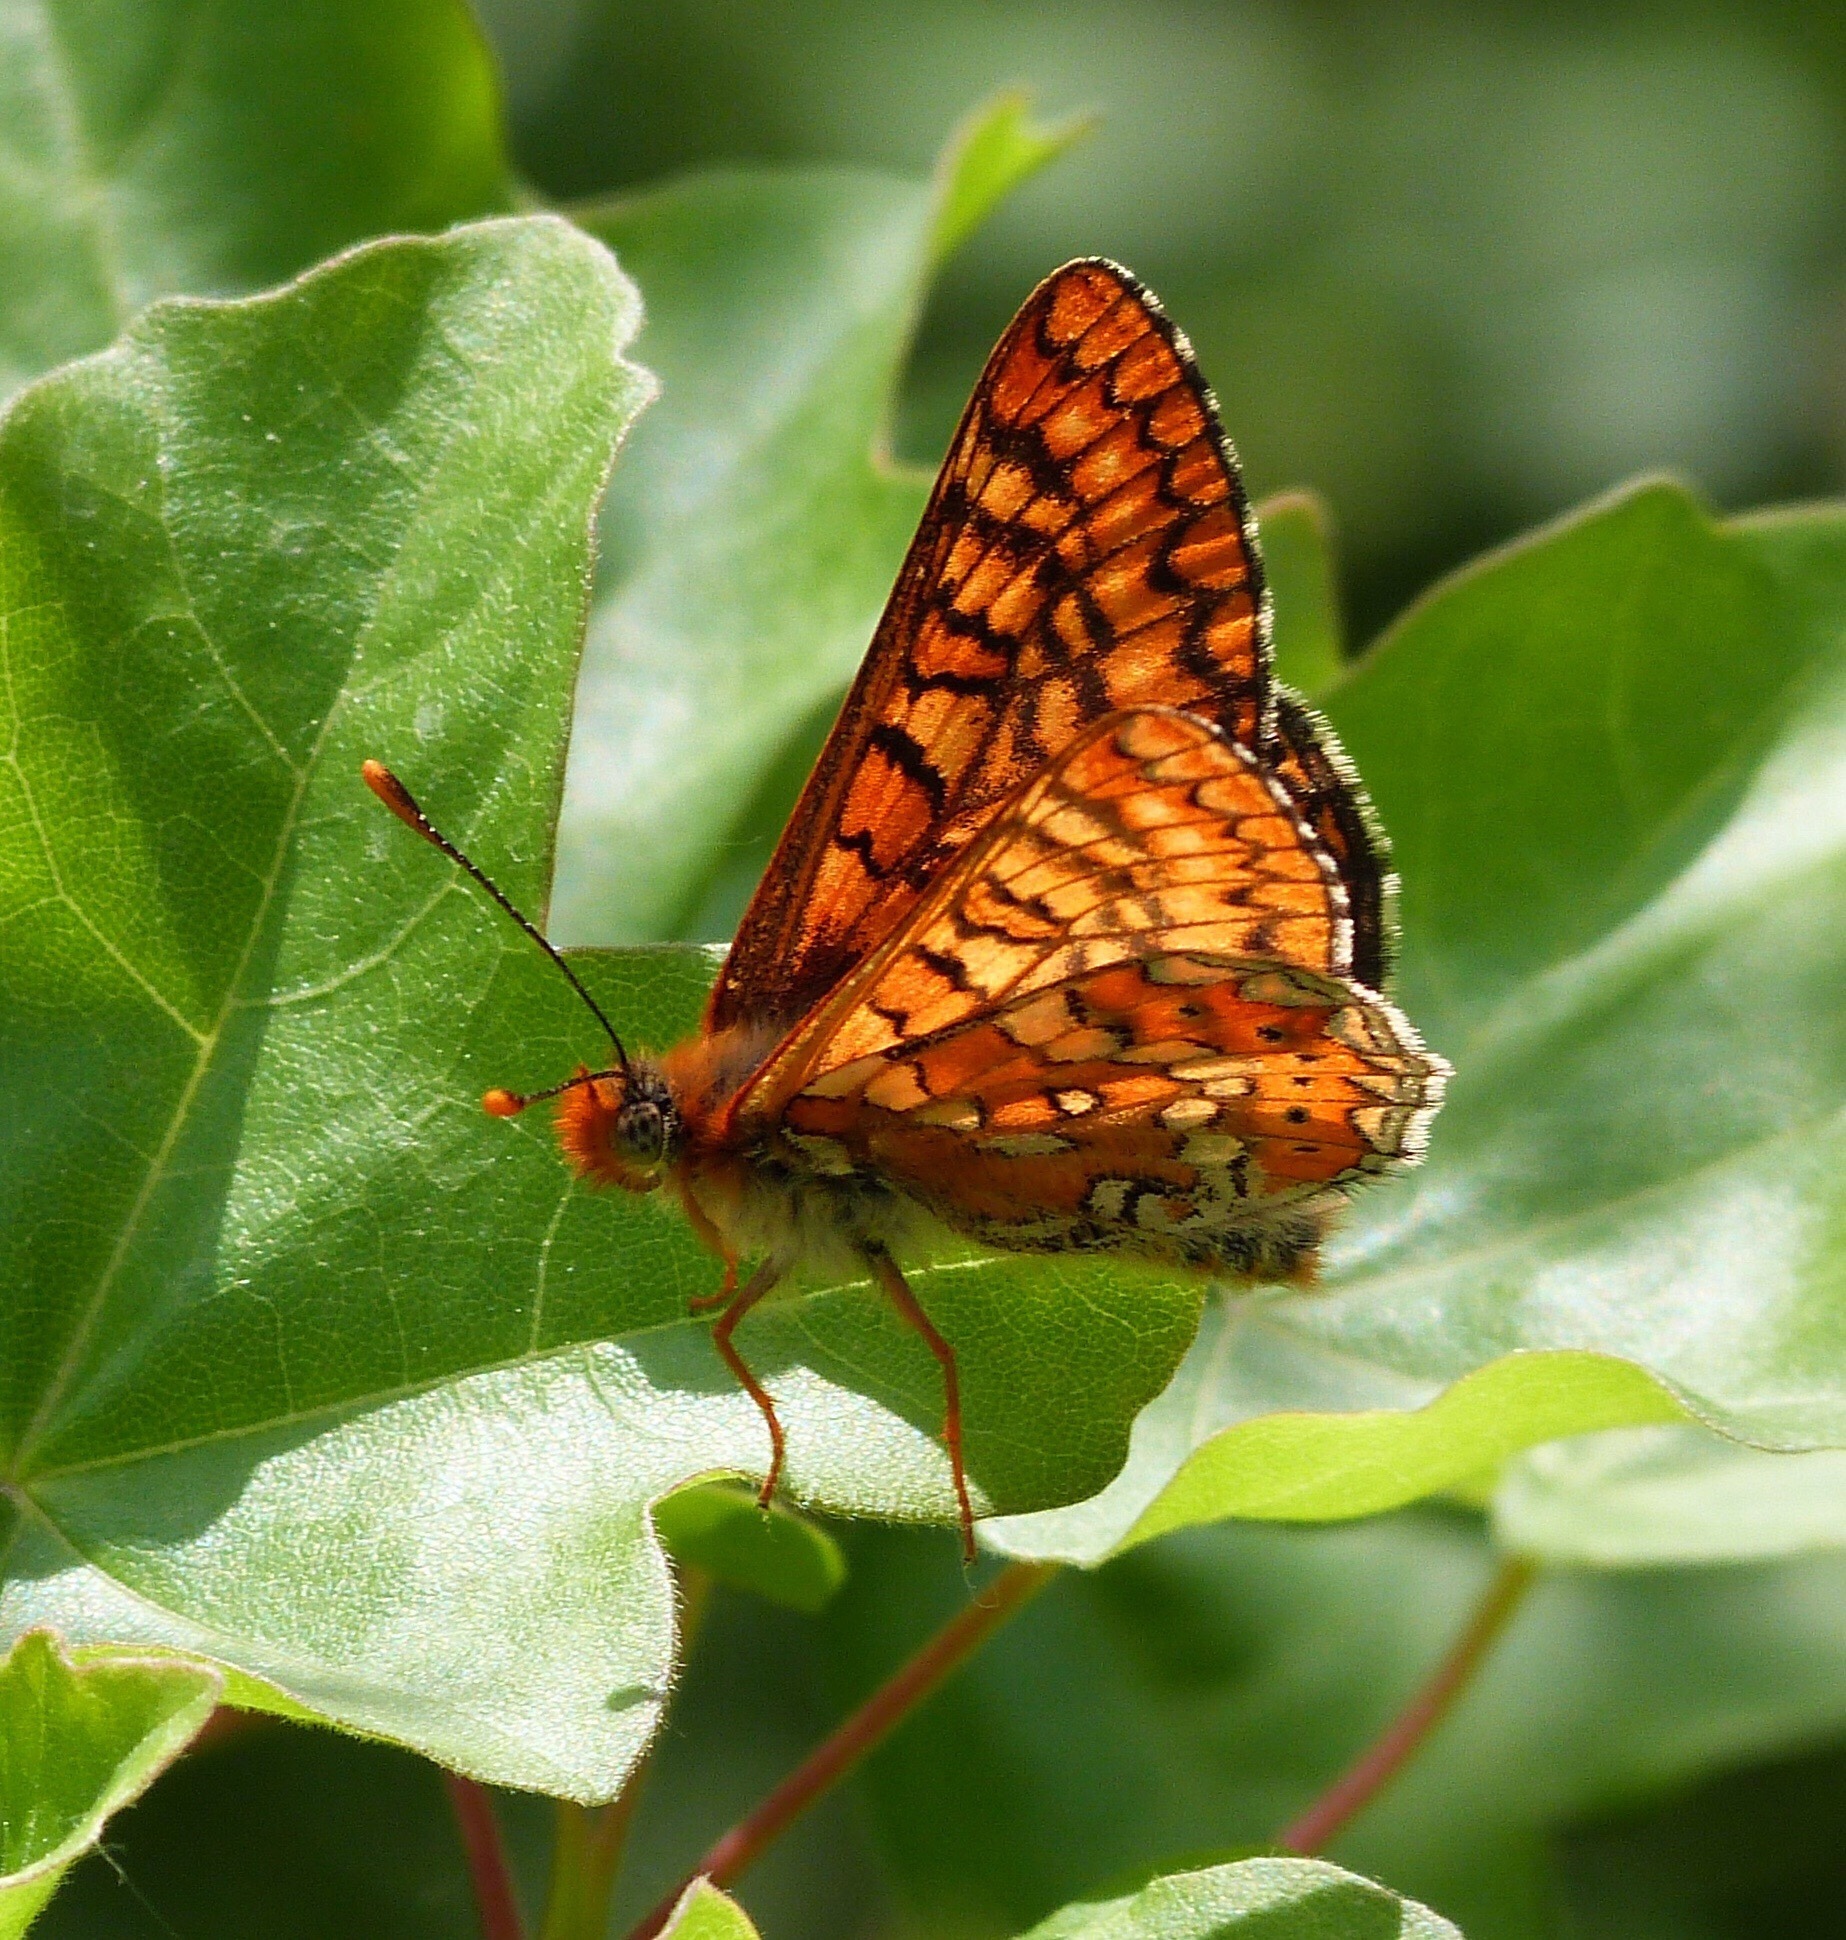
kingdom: Animalia
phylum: Arthropoda
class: Insecta
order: Lepidoptera
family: Nymphalidae
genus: Euphydryas
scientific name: Euphydryas aurinia
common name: Marsh fritillary
